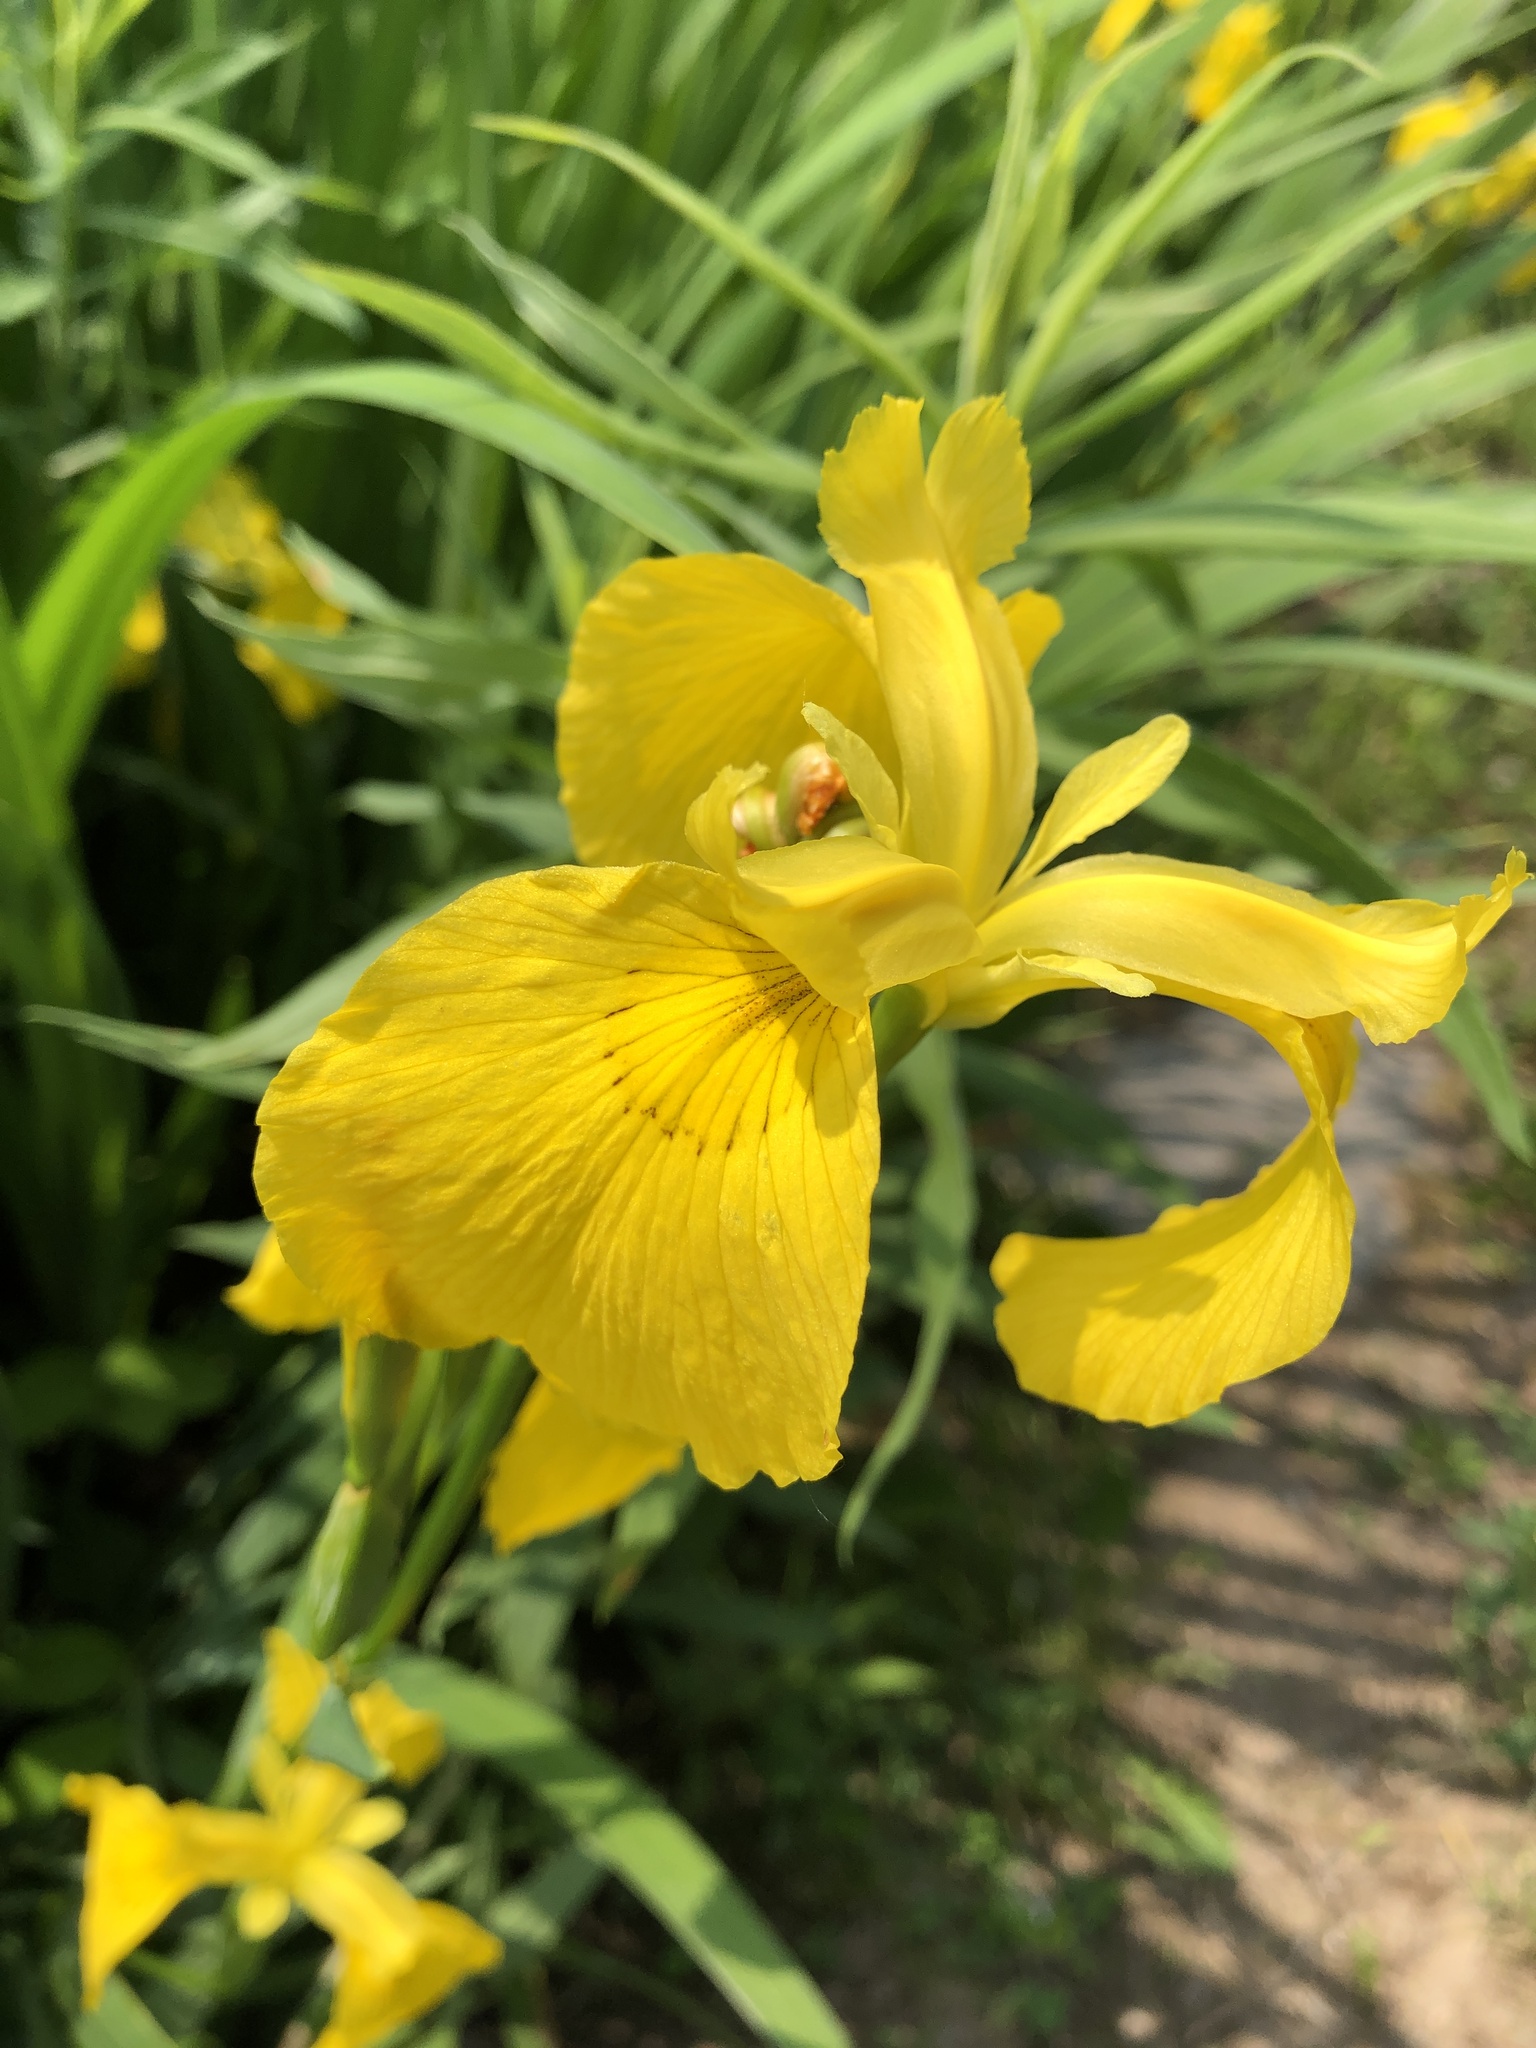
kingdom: Plantae
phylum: Tracheophyta
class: Liliopsida
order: Asparagales
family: Iridaceae
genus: Iris
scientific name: Iris pseudacorus
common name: Yellow flag
